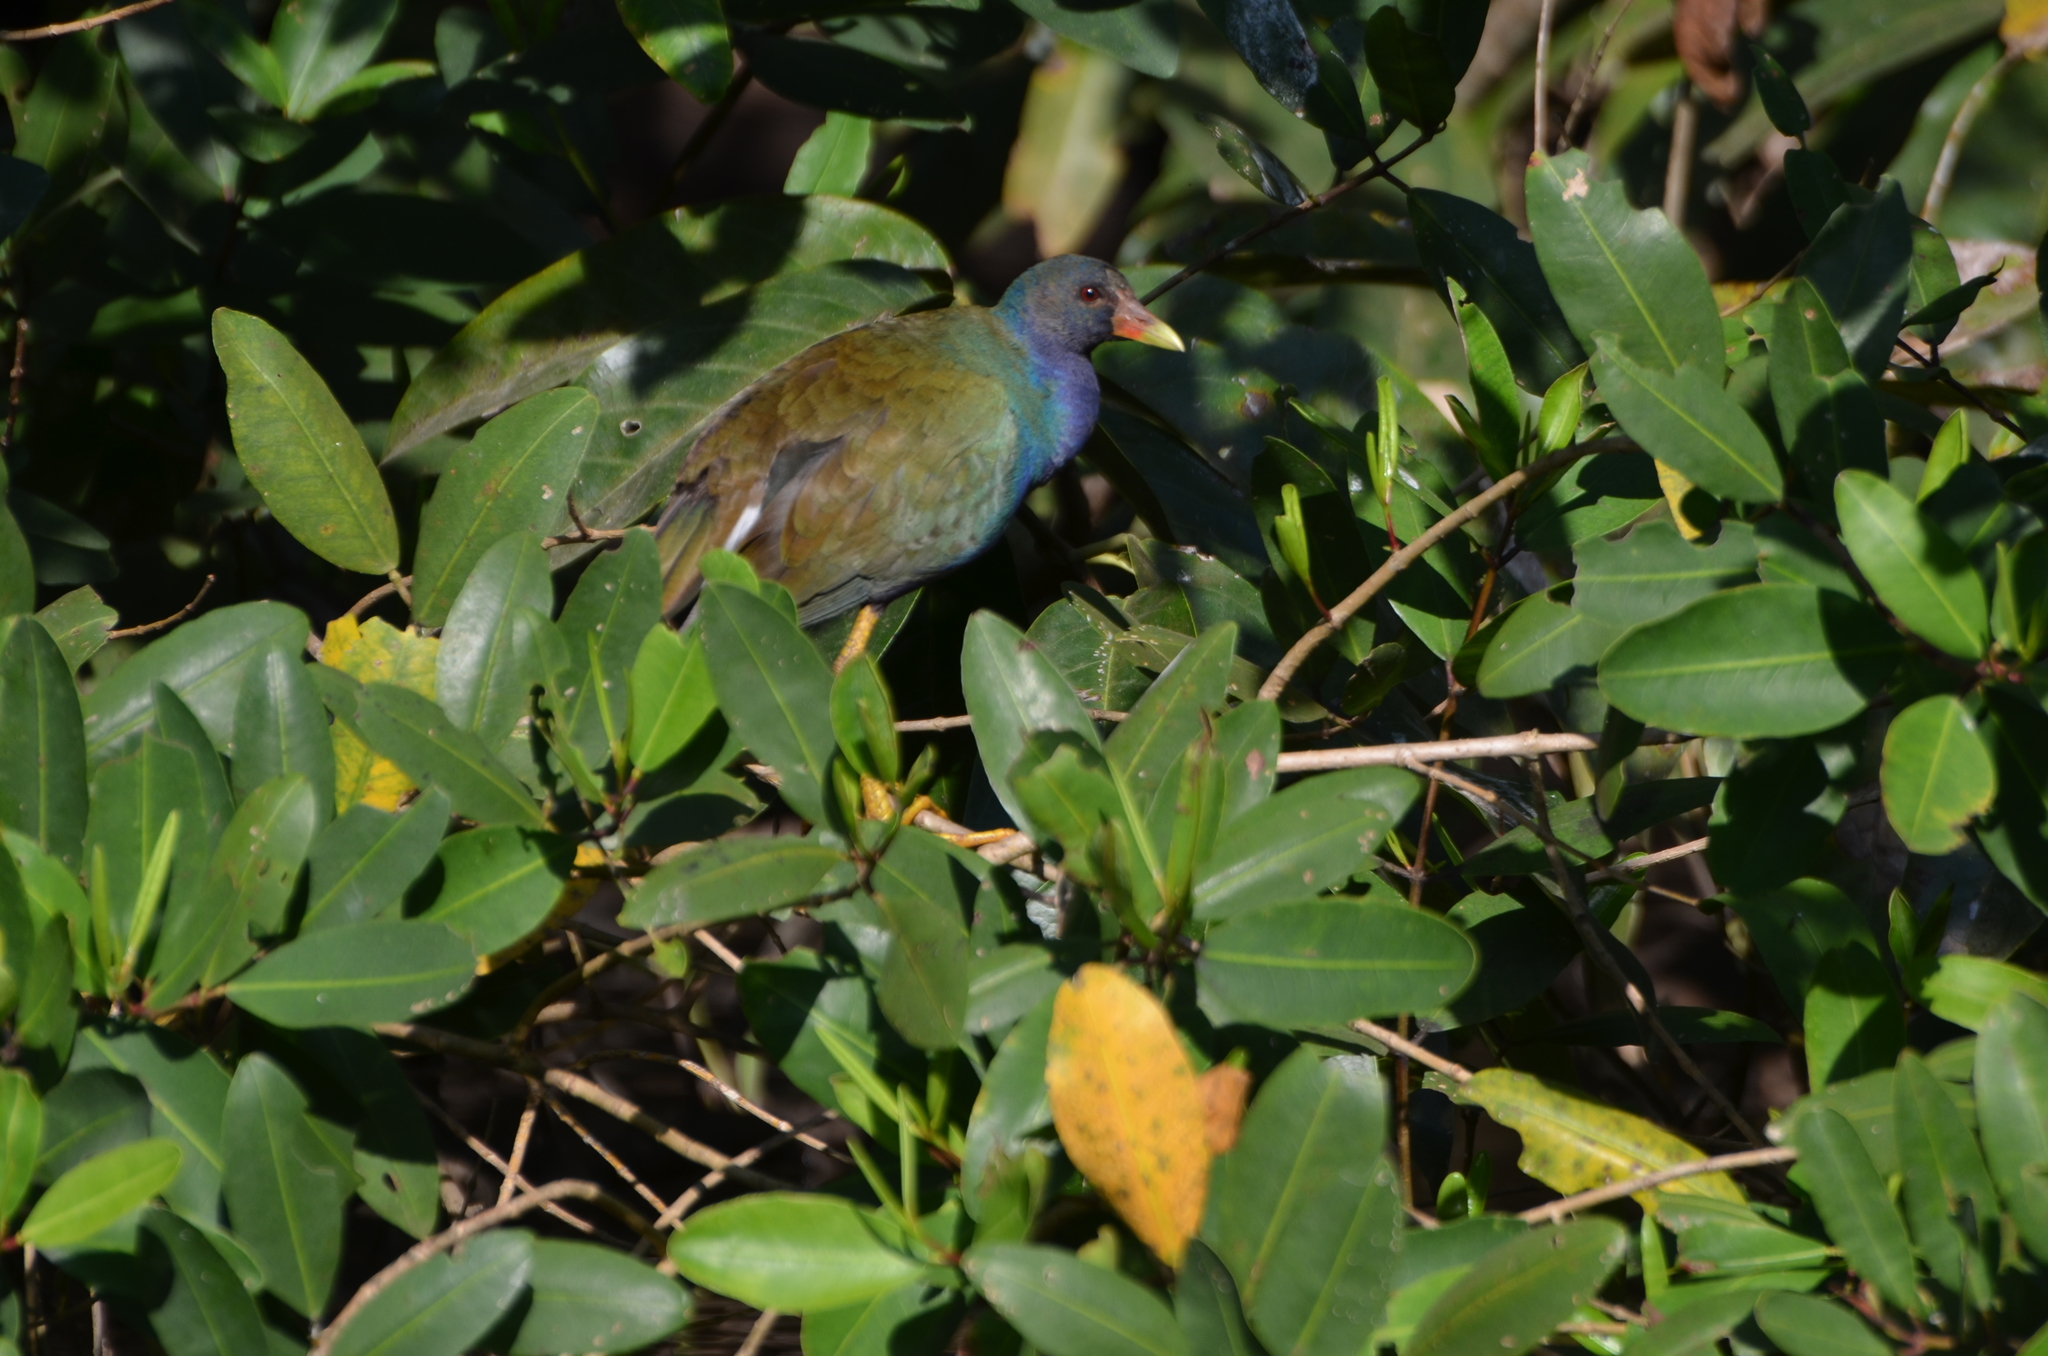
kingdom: Animalia
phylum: Chordata
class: Aves
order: Gruiformes
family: Rallidae
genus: Porphyrio
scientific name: Porphyrio martinica
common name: Purple gallinule
